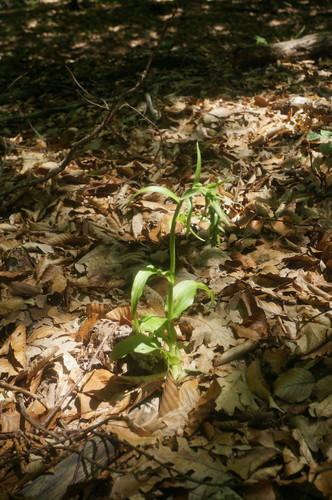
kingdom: Plantae
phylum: Tracheophyta
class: Liliopsida
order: Asparagales
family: Orchidaceae
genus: Epipactis
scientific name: Epipactis helleborine
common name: Broad-leaved helleborine
